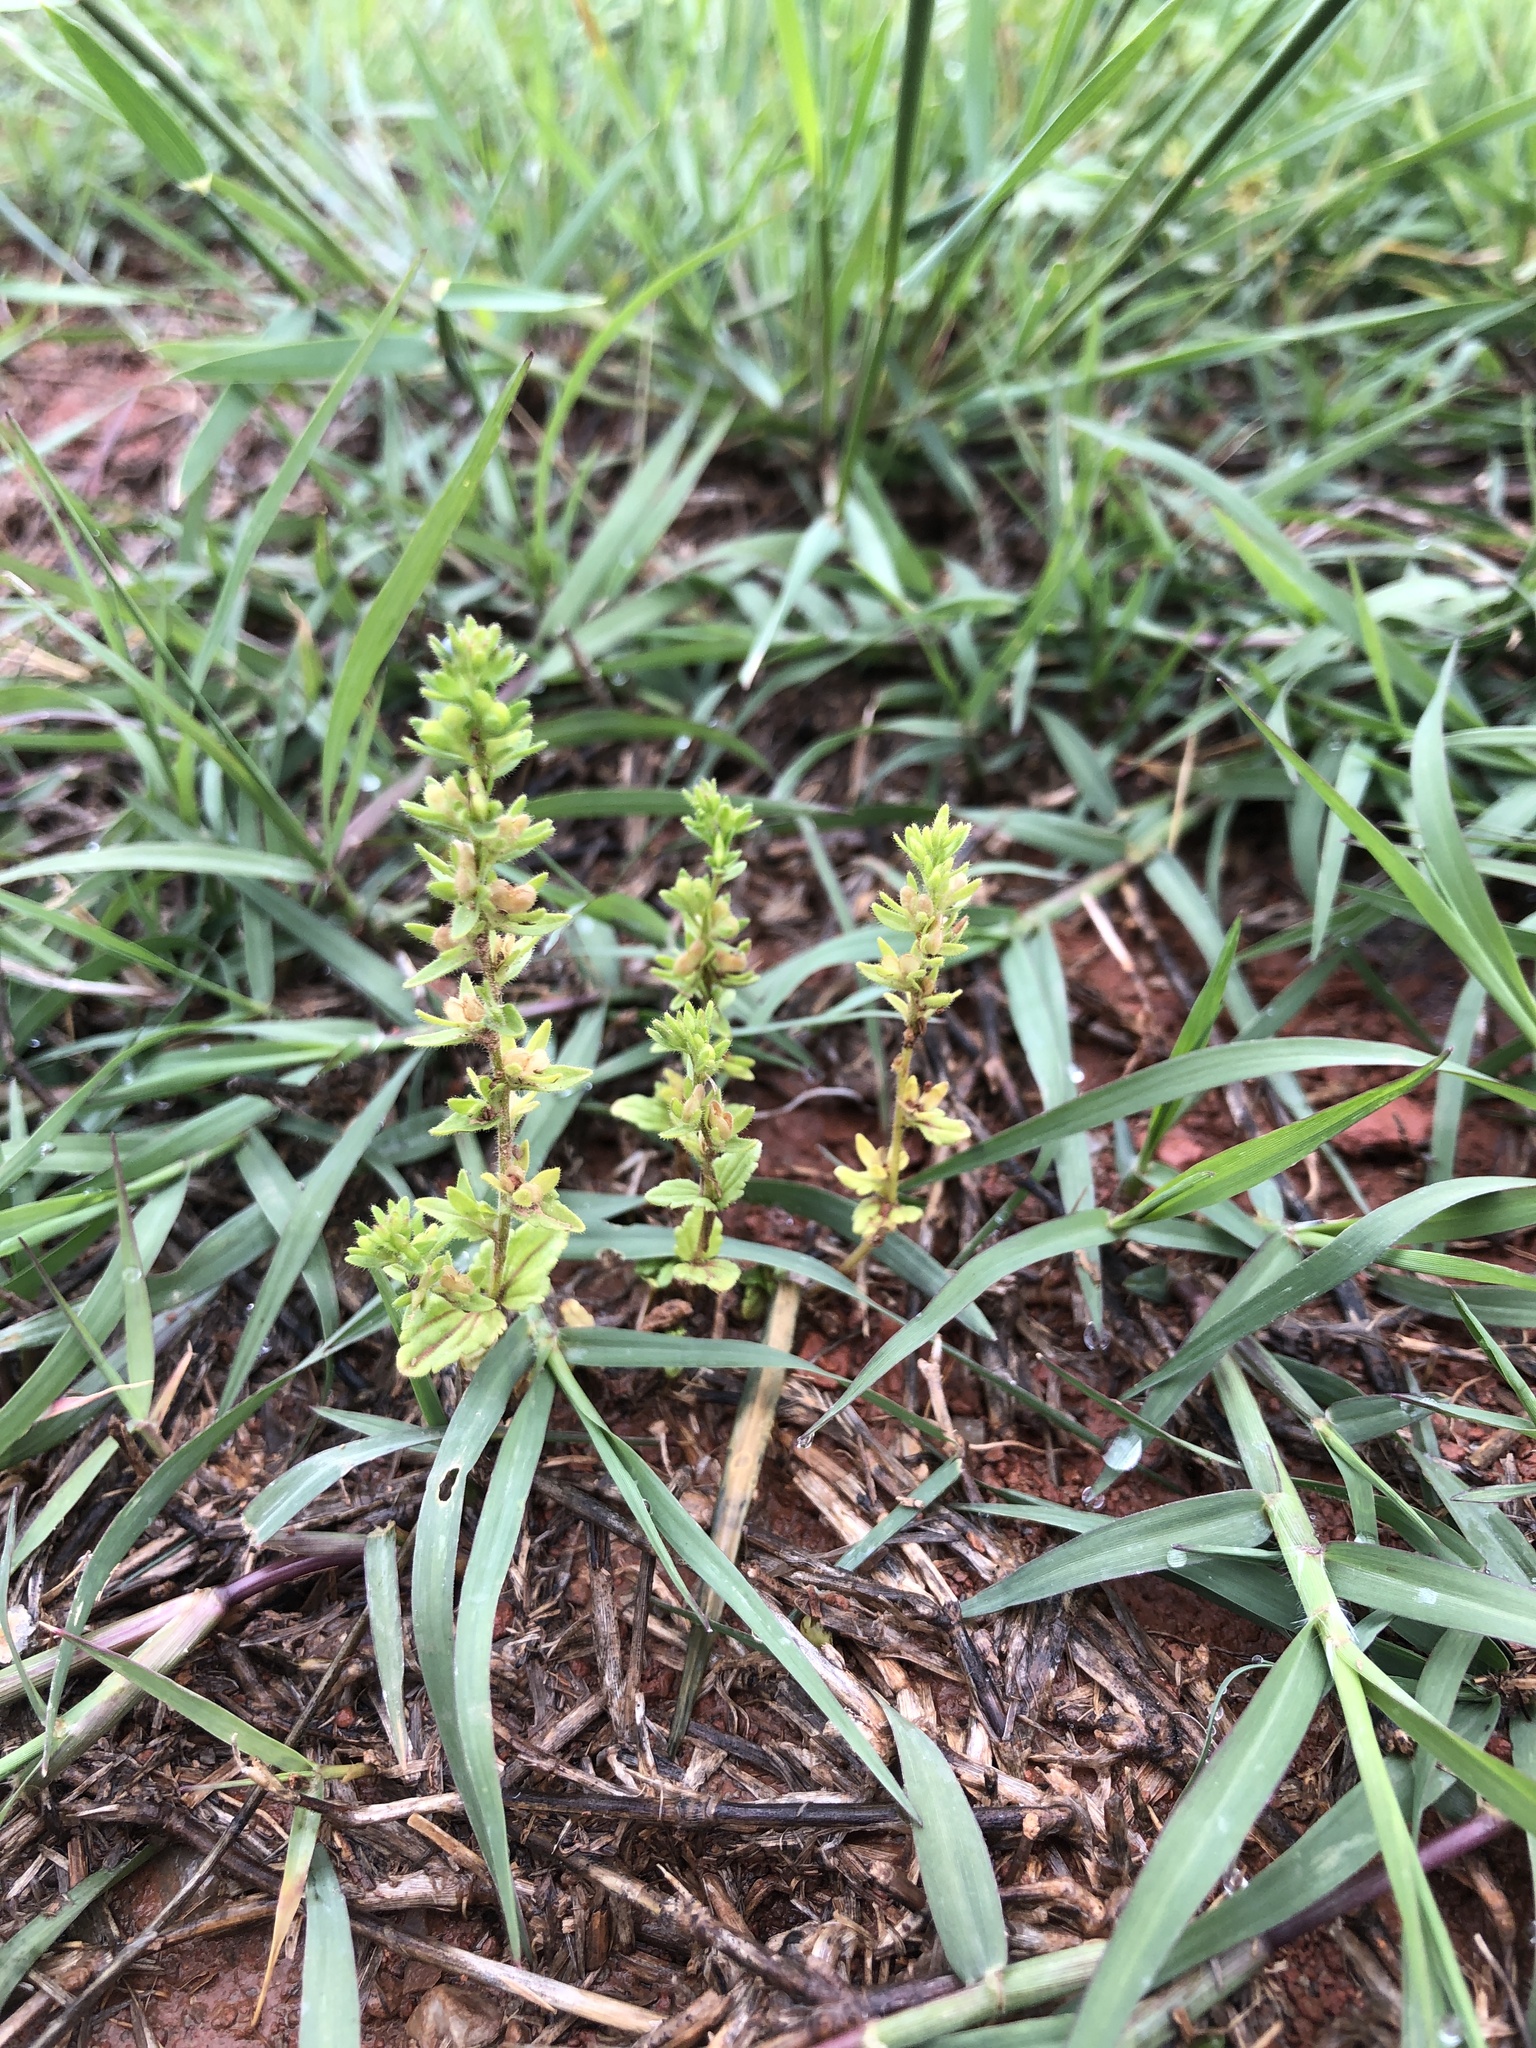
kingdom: Plantae
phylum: Tracheophyta
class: Magnoliopsida
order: Lamiales
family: Plantaginaceae
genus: Veronica
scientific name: Veronica peregrina
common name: Neckweed
